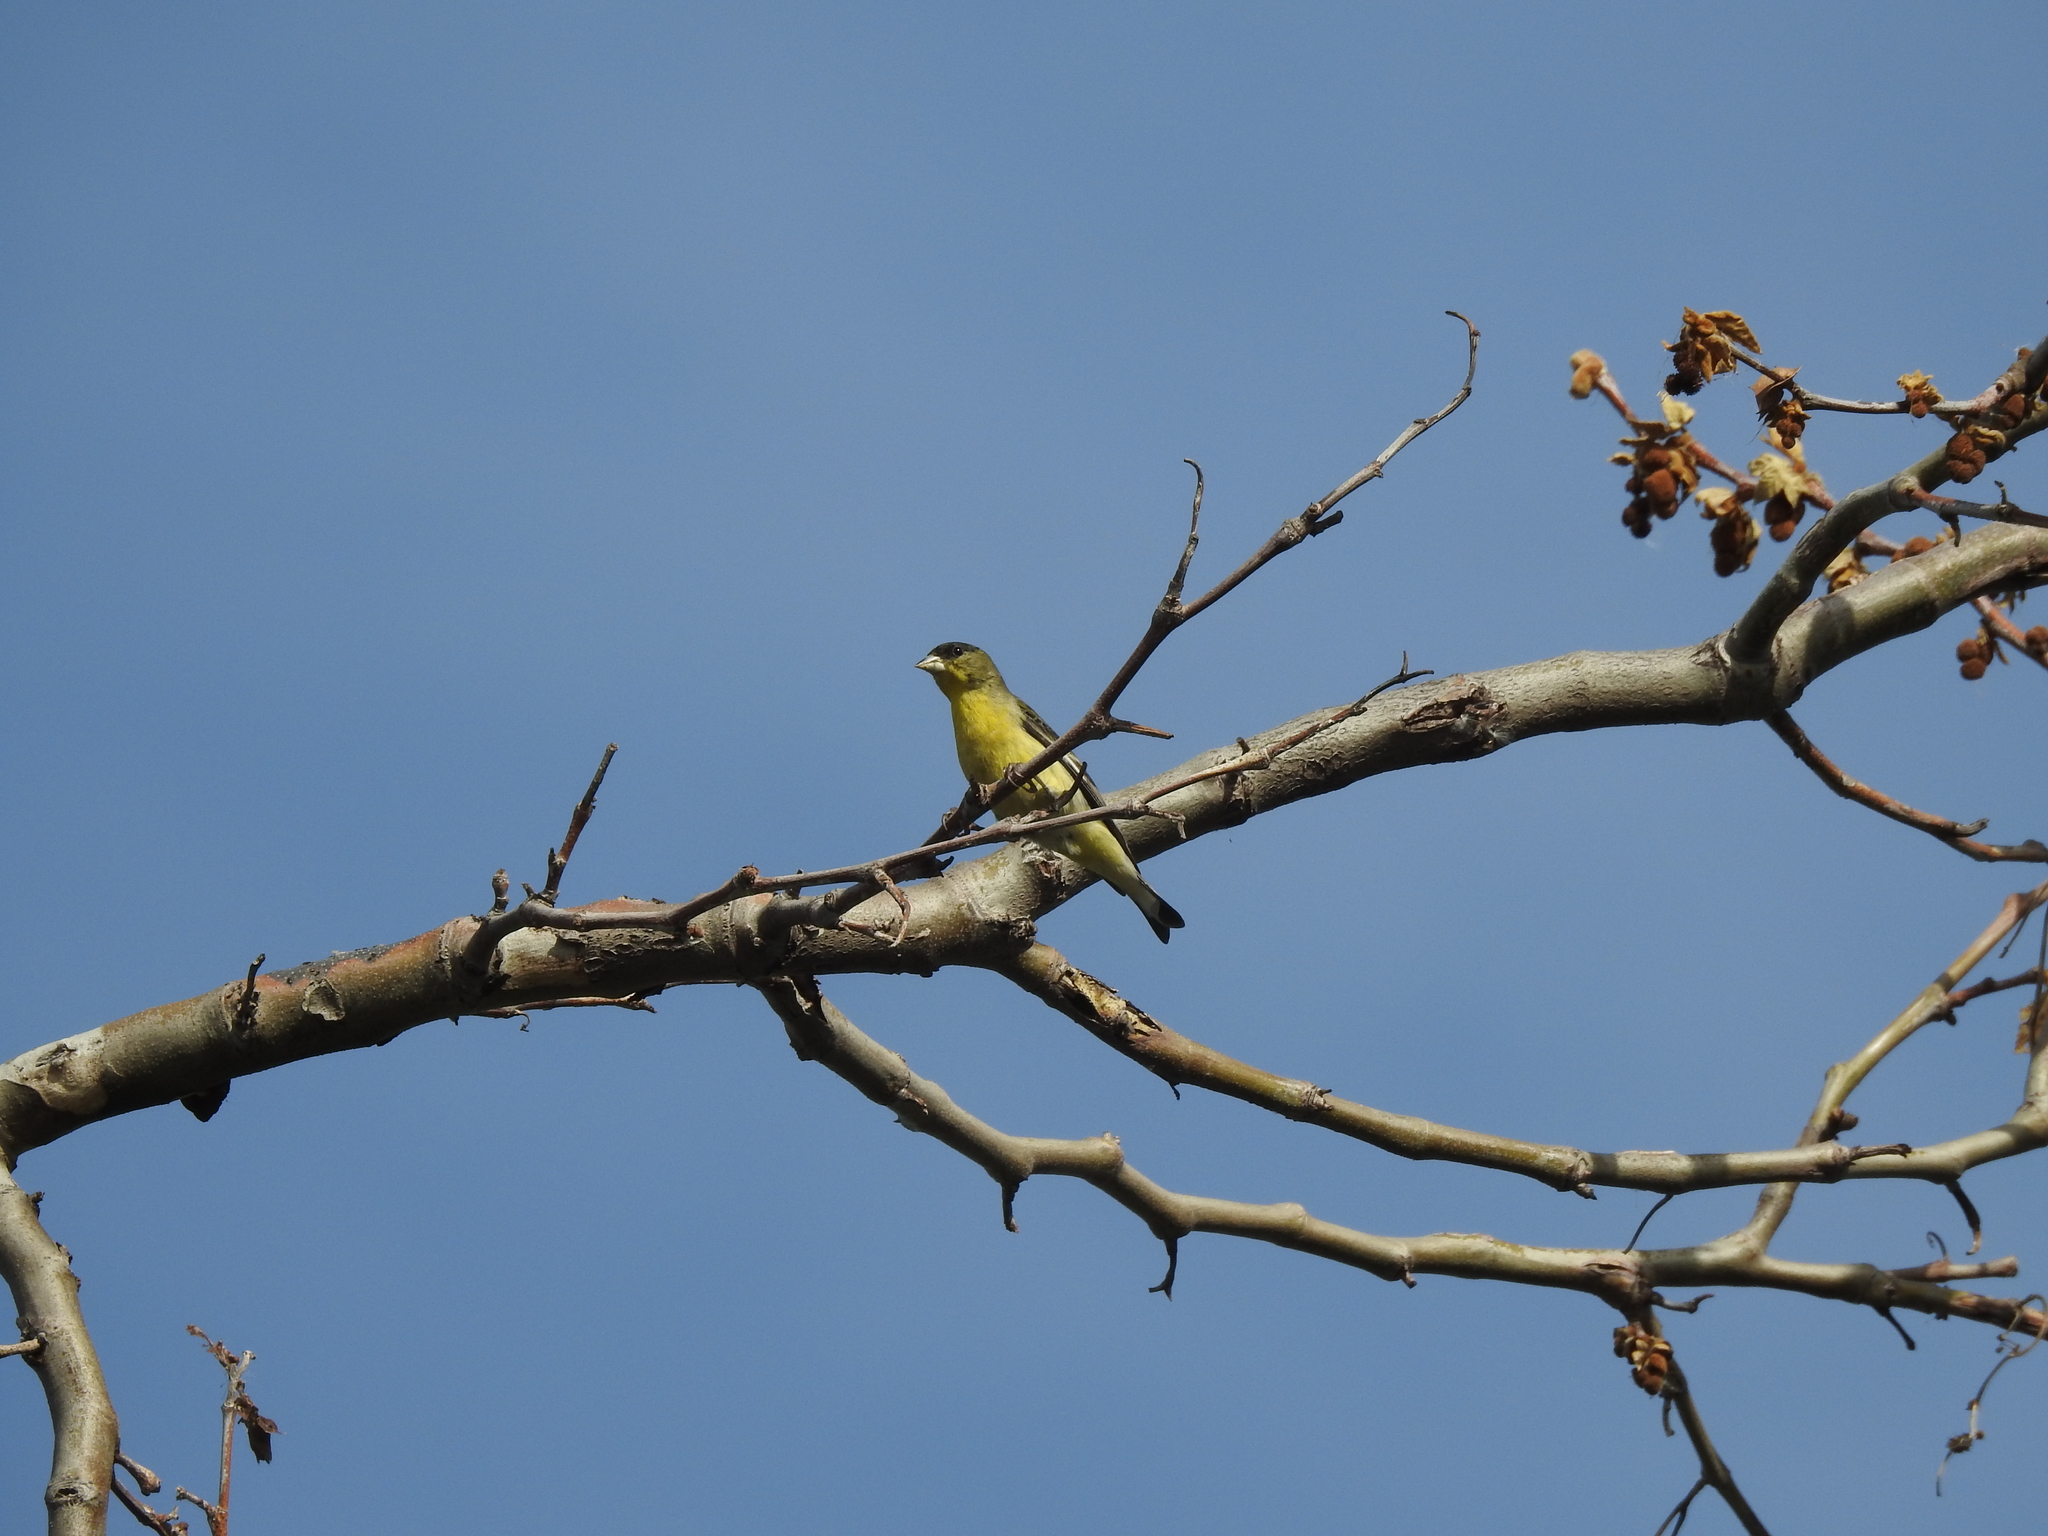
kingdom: Animalia
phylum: Chordata
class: Aves
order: Passeriformes
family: Fringillidae
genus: Spinus
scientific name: Spinus psaltria
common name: Lesser goldfinch
